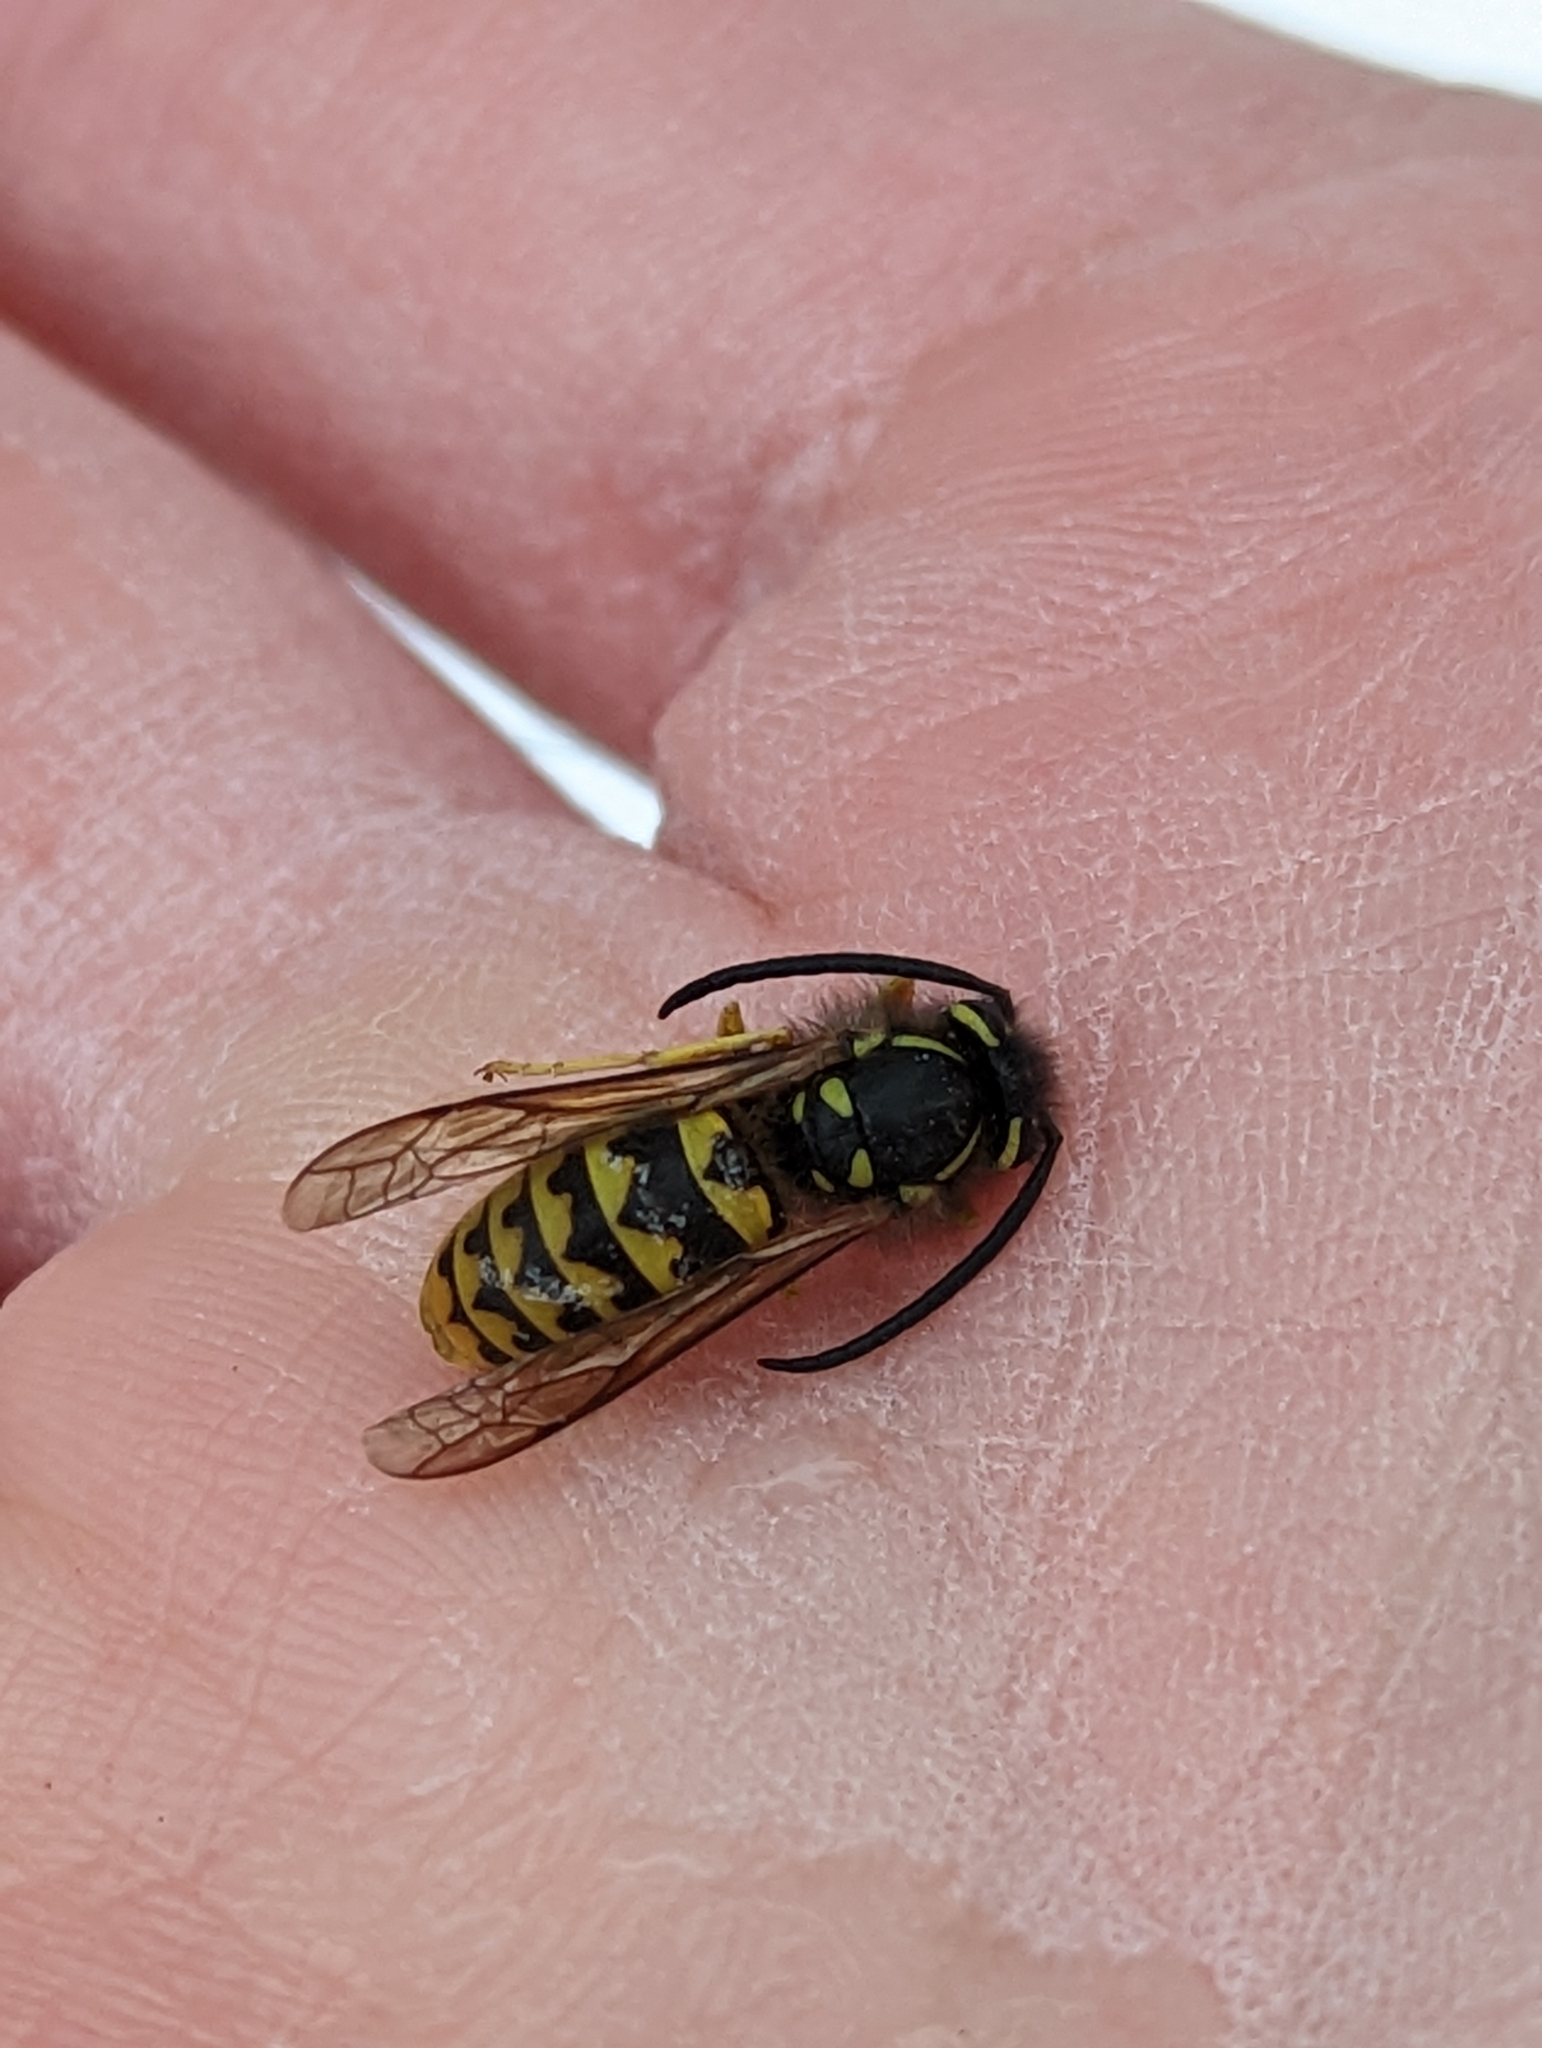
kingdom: Animalia
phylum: Arthropoda
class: Insecta
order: Hymenoptera
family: Vespidae
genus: Vespula
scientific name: Vespula pensylvanica
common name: Western yellowjacket
